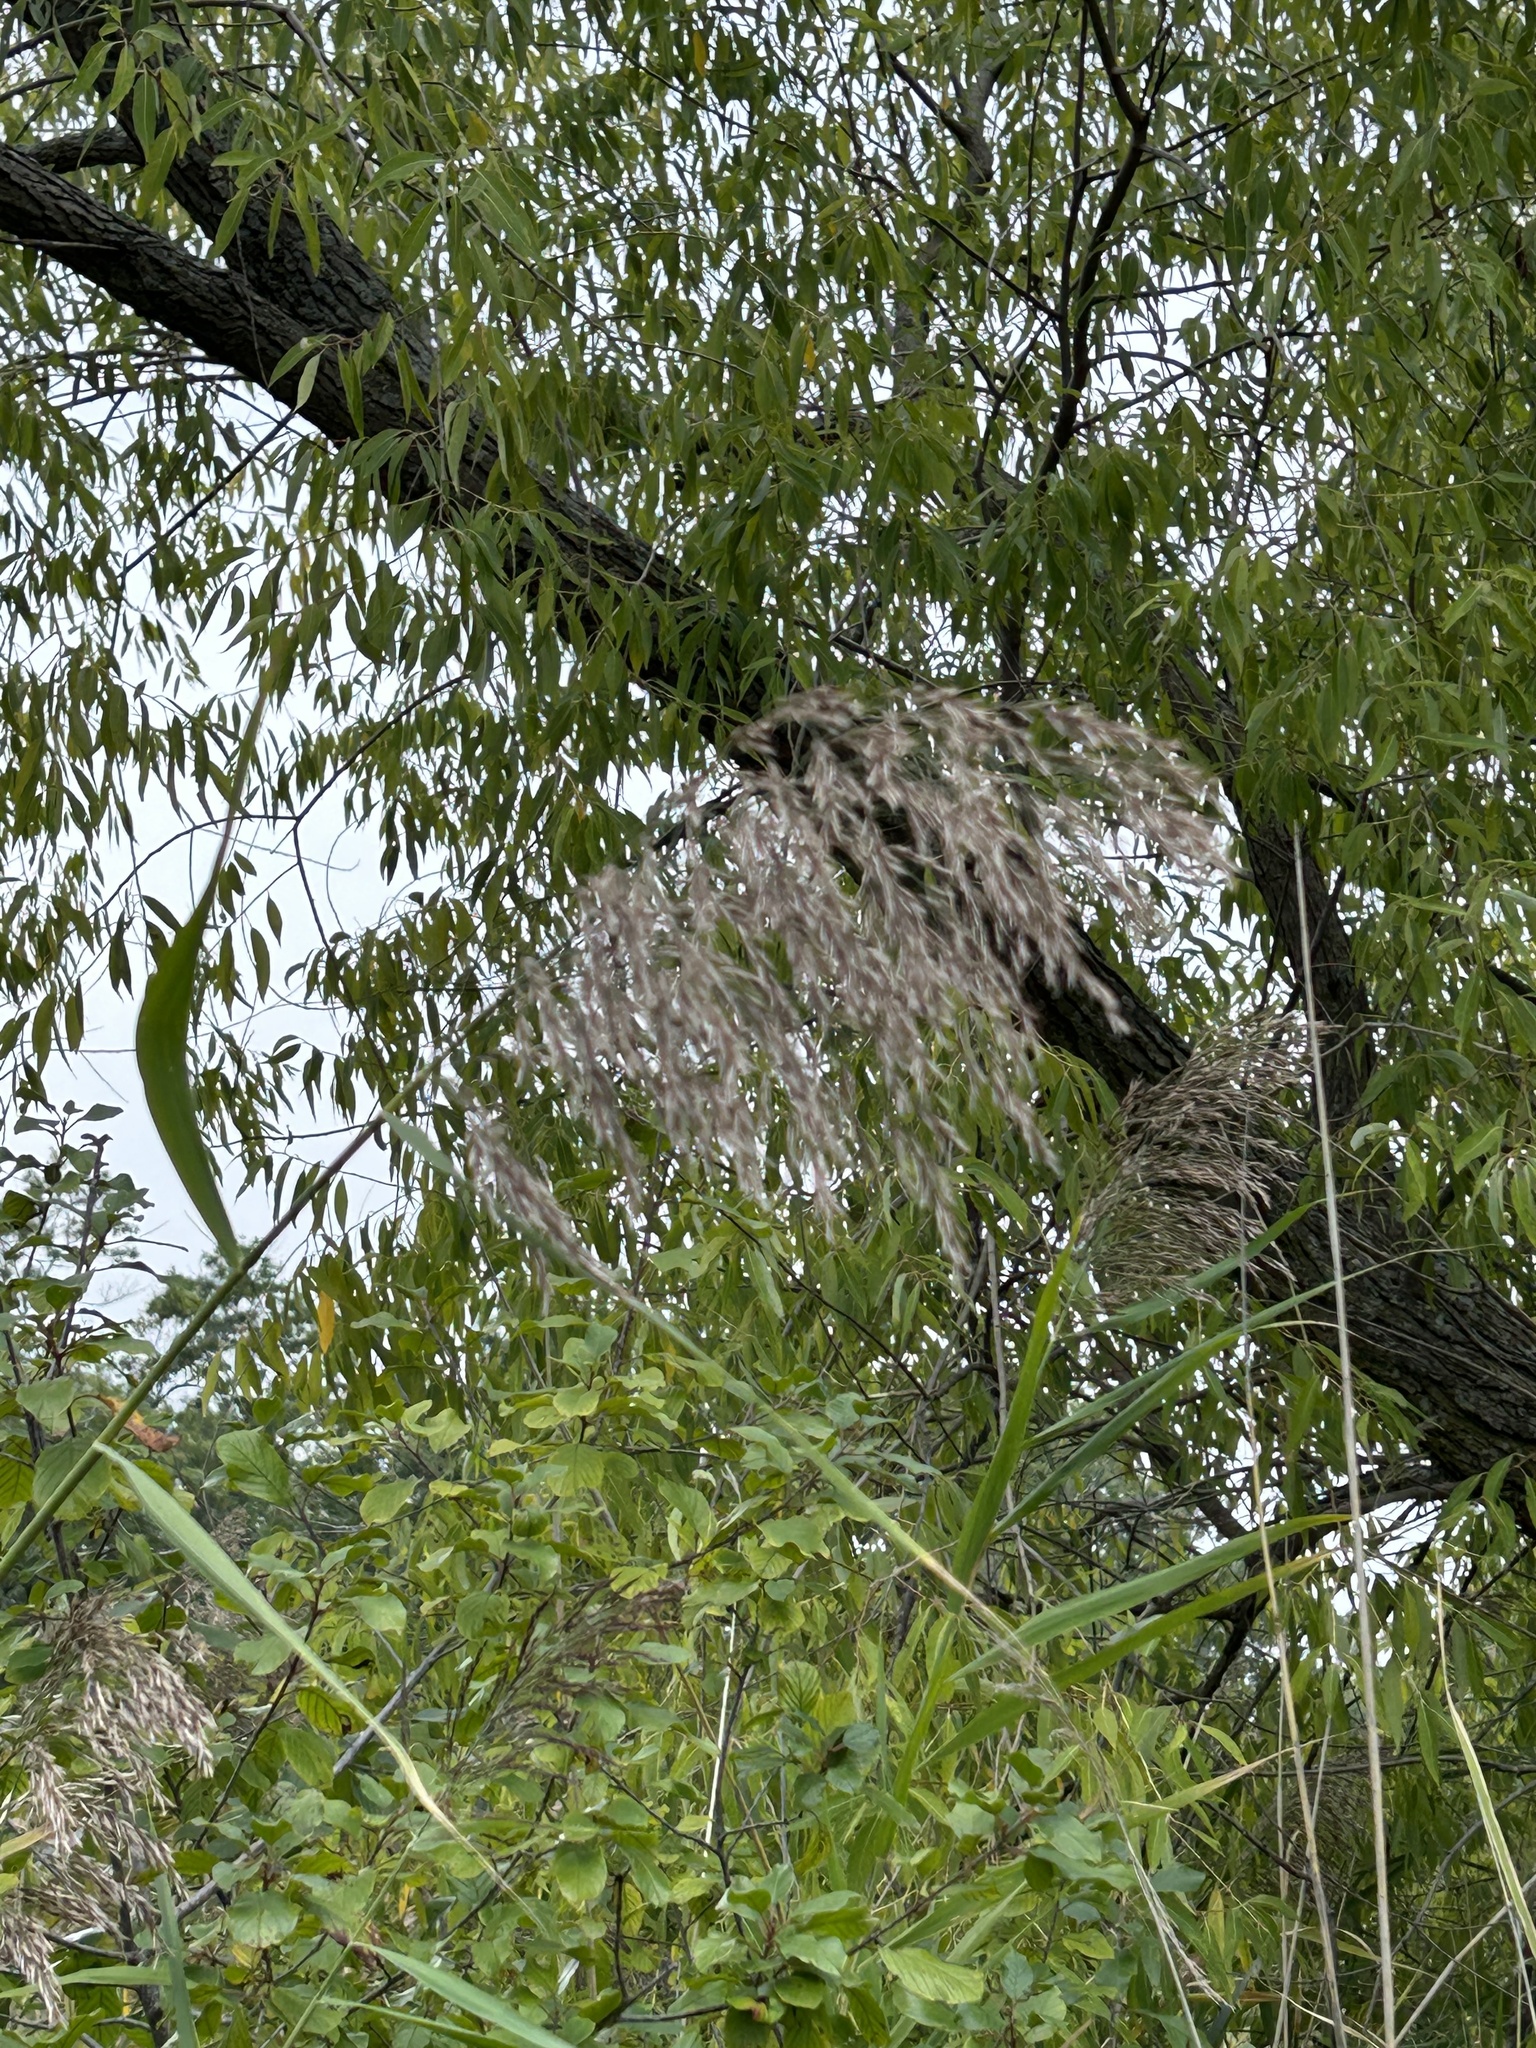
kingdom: Plantae
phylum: Tracheophyta
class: Liliopsida
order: Poales
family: Poaceae
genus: Phragmites
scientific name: Phragmites australis
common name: Common reed
